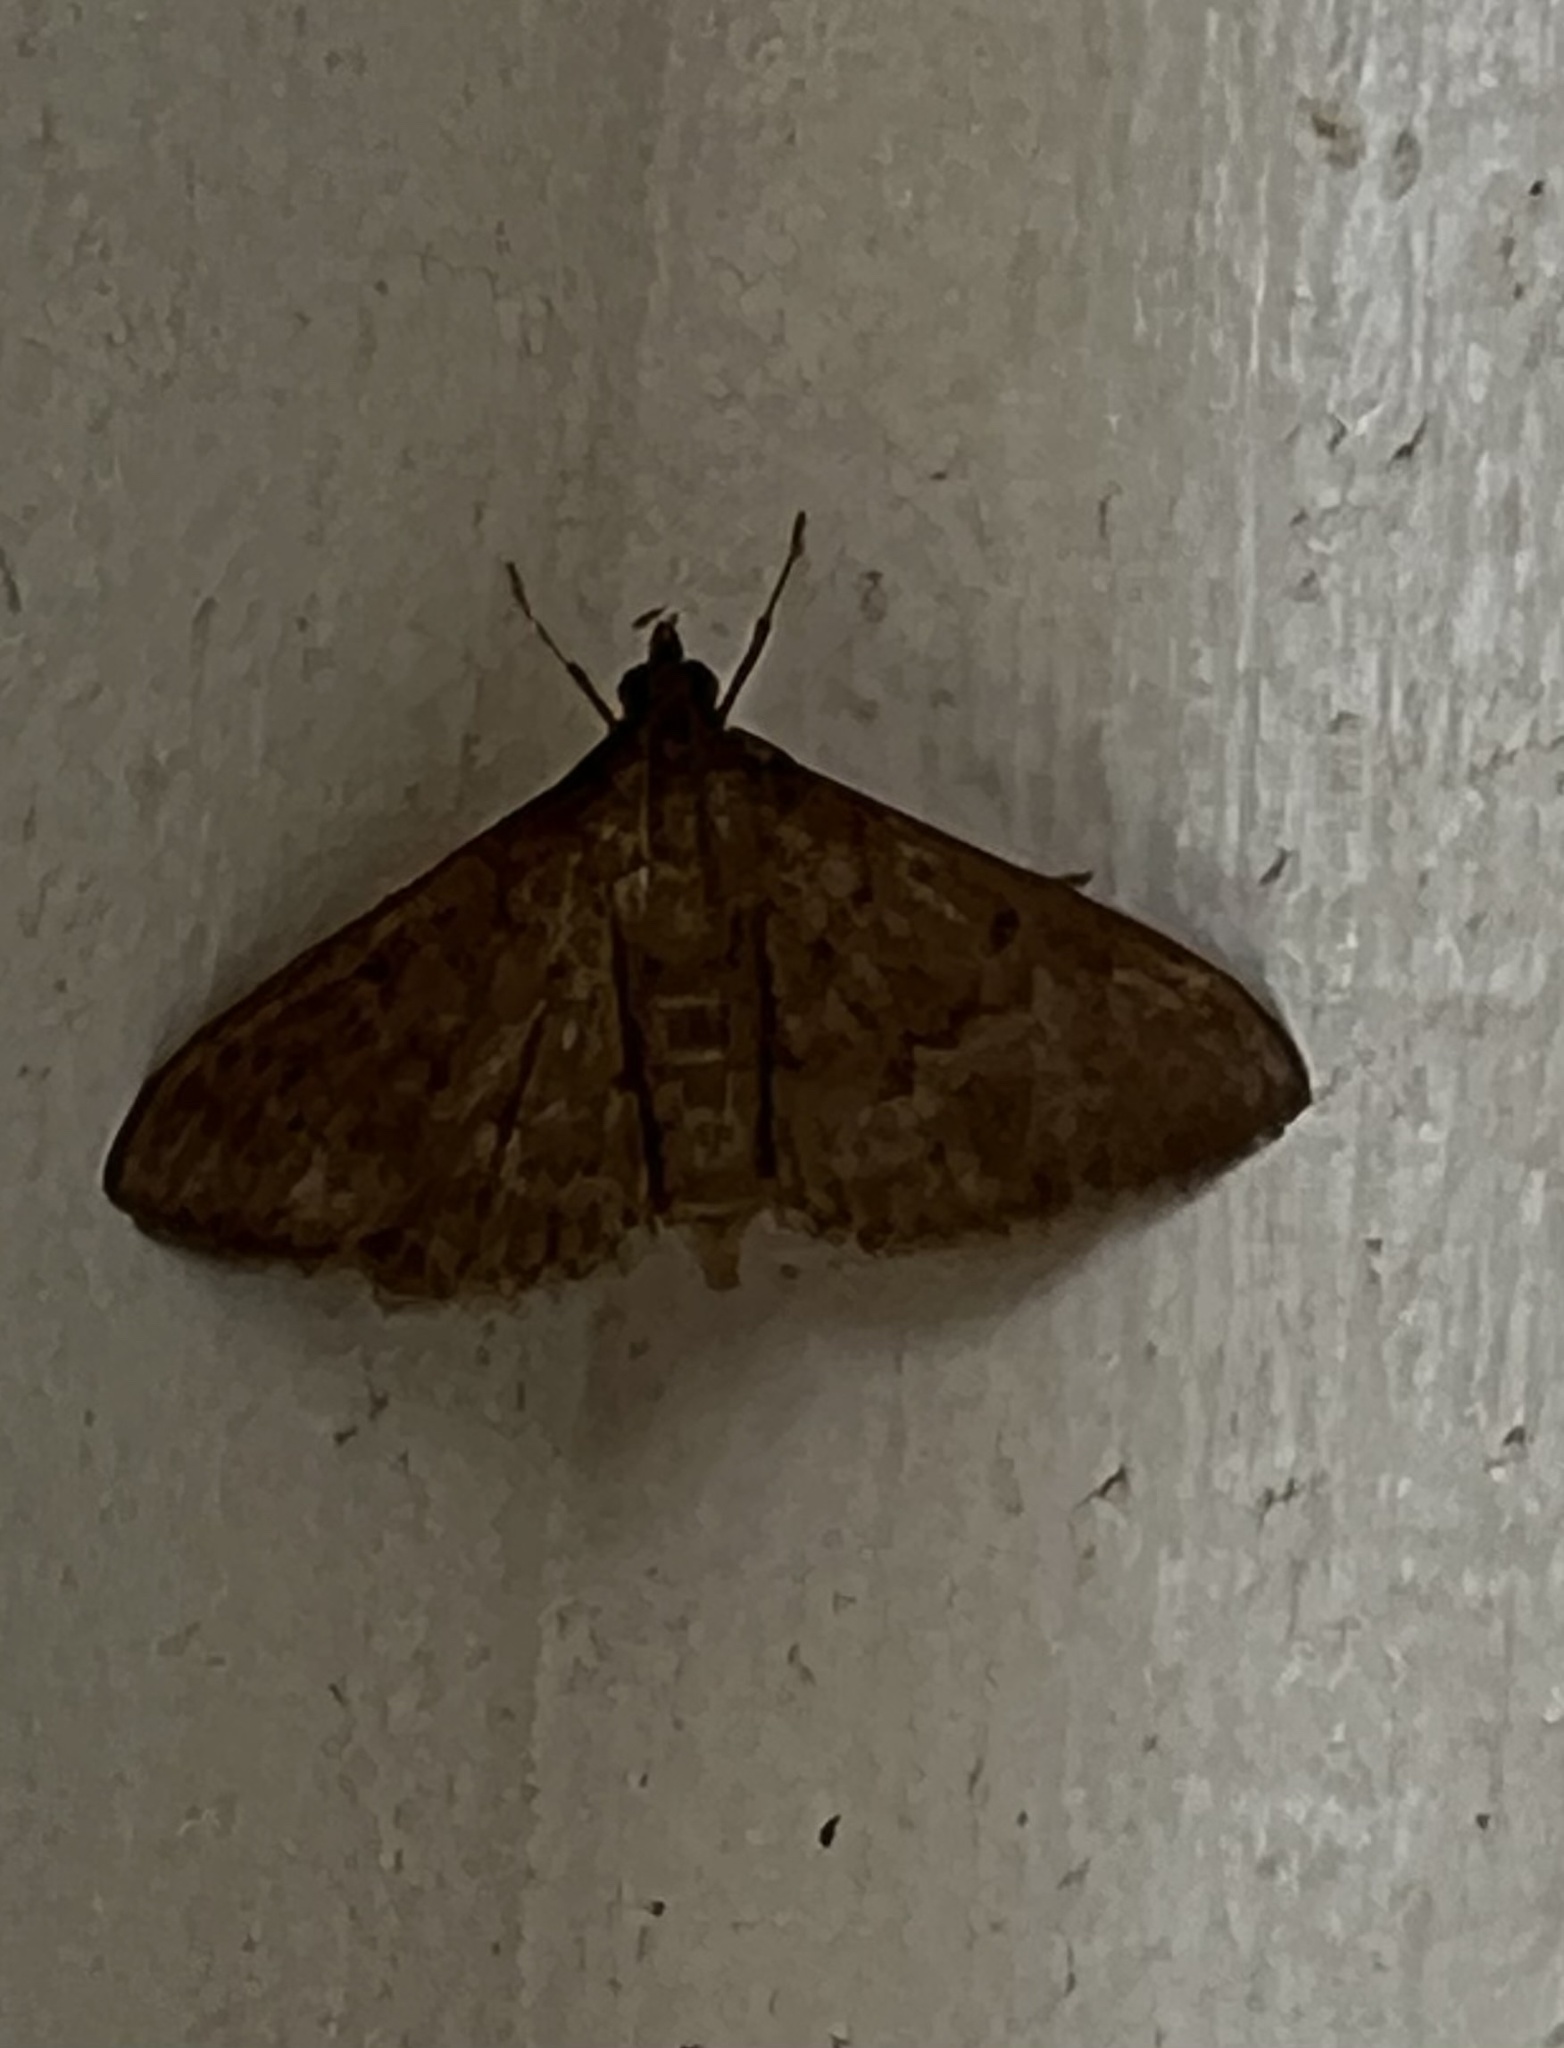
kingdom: Animalia
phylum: Arthropoda
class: Insecta
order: Lepidoptera
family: Crambidae
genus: Herpetogramma
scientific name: Herpetogramma licarsisalis
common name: Grass webworm
